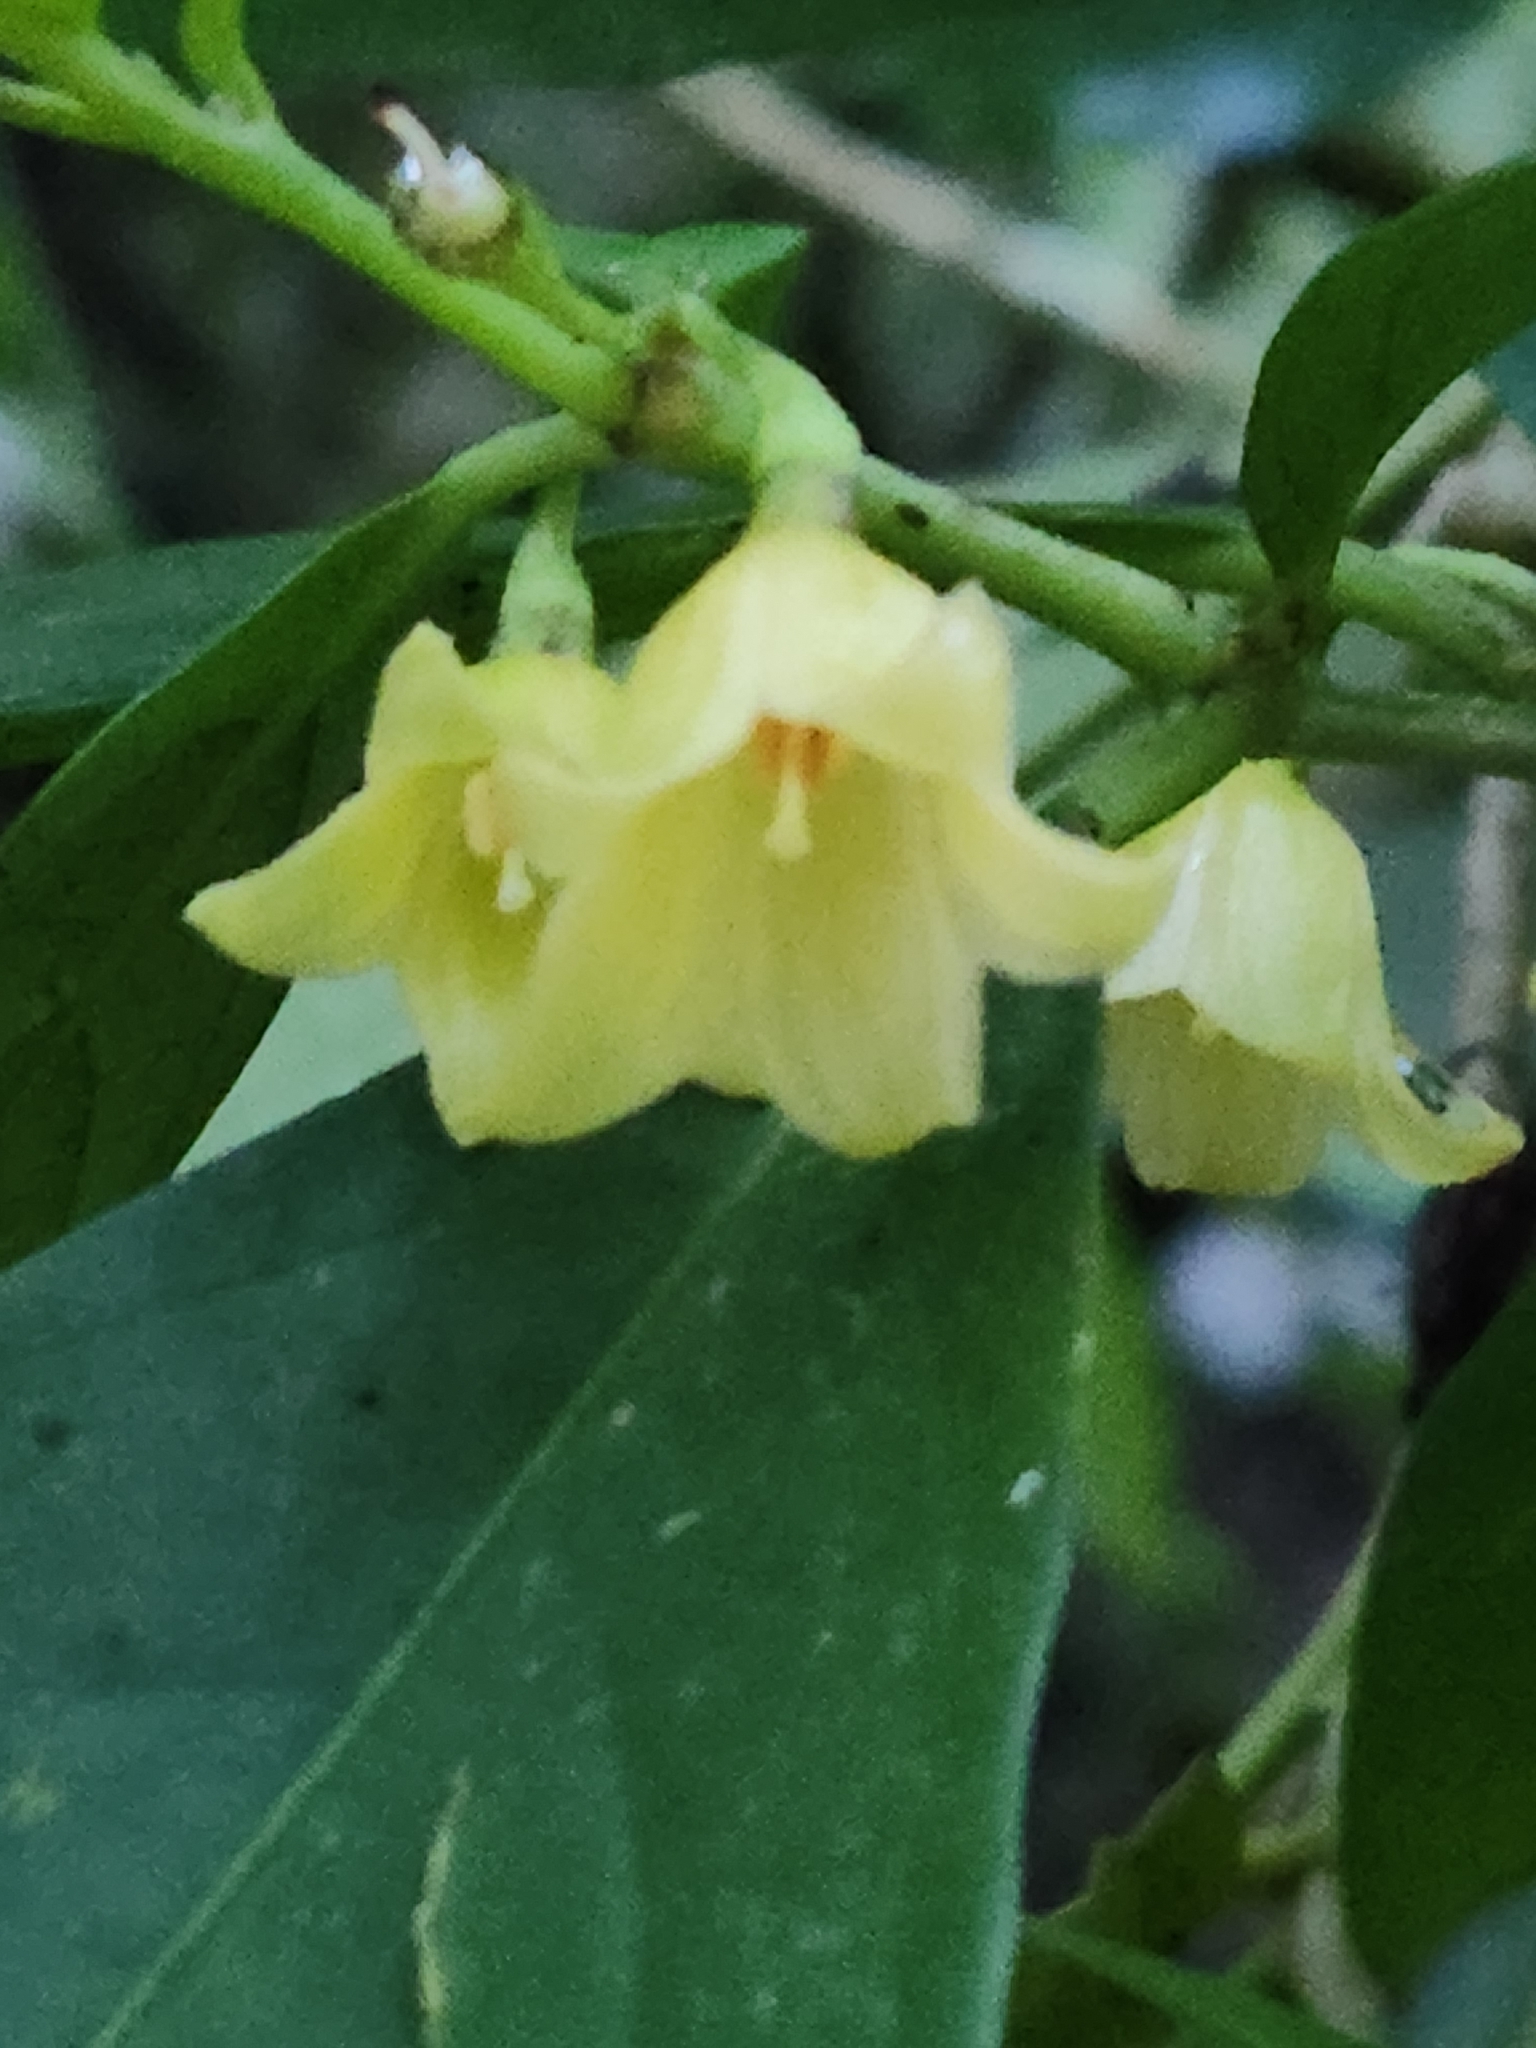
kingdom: Plantae
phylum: Tracheophyta
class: Magnoliopsida
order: Solanales
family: Solanaceae
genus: Cuatresia
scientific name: Cuatresia riparia
